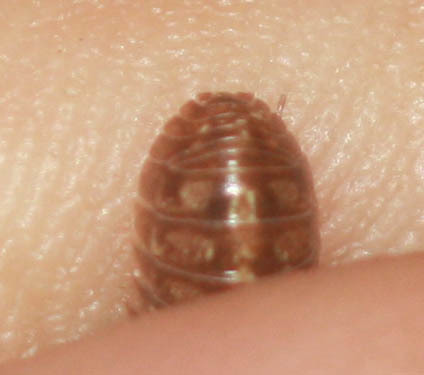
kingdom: Animalia
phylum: Arthropoda
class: Malacostraca
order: Isopoda
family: Armadillidiidae
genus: Armadillidium
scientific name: Armadillidium vulgare
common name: Common pill woodlouse
